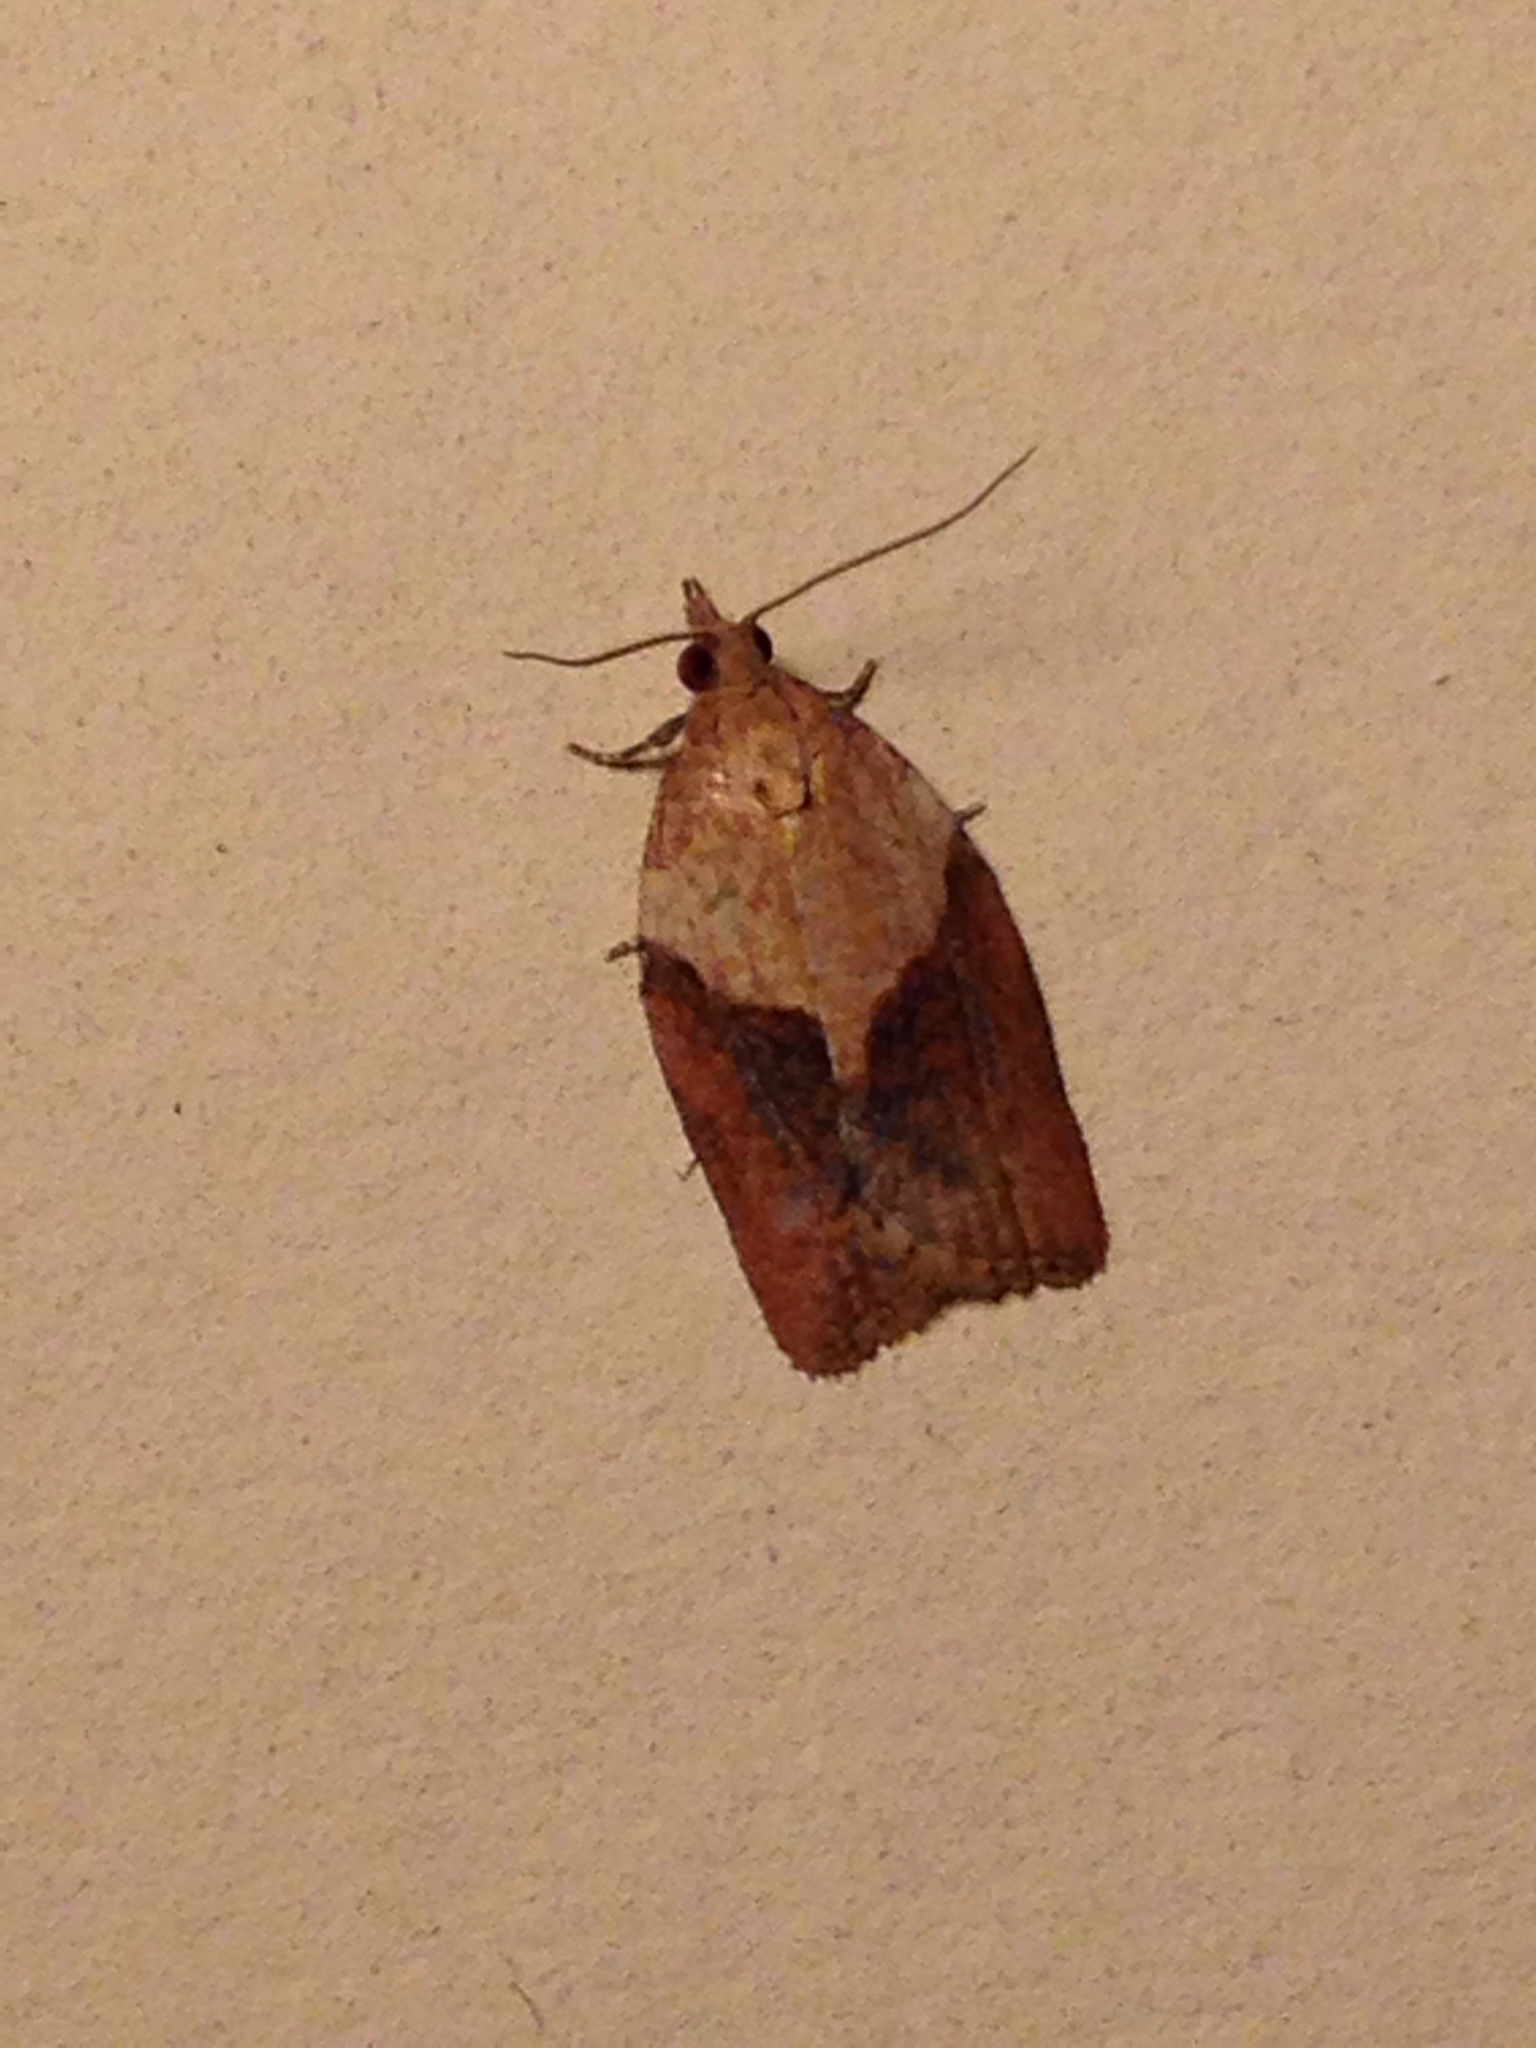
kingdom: Animalia
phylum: Arthropoda
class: Insecta
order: Lepidoptera
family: Tortricidae
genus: Epiphyas
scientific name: Epiphyas postvittana
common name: Light brown apple moth
